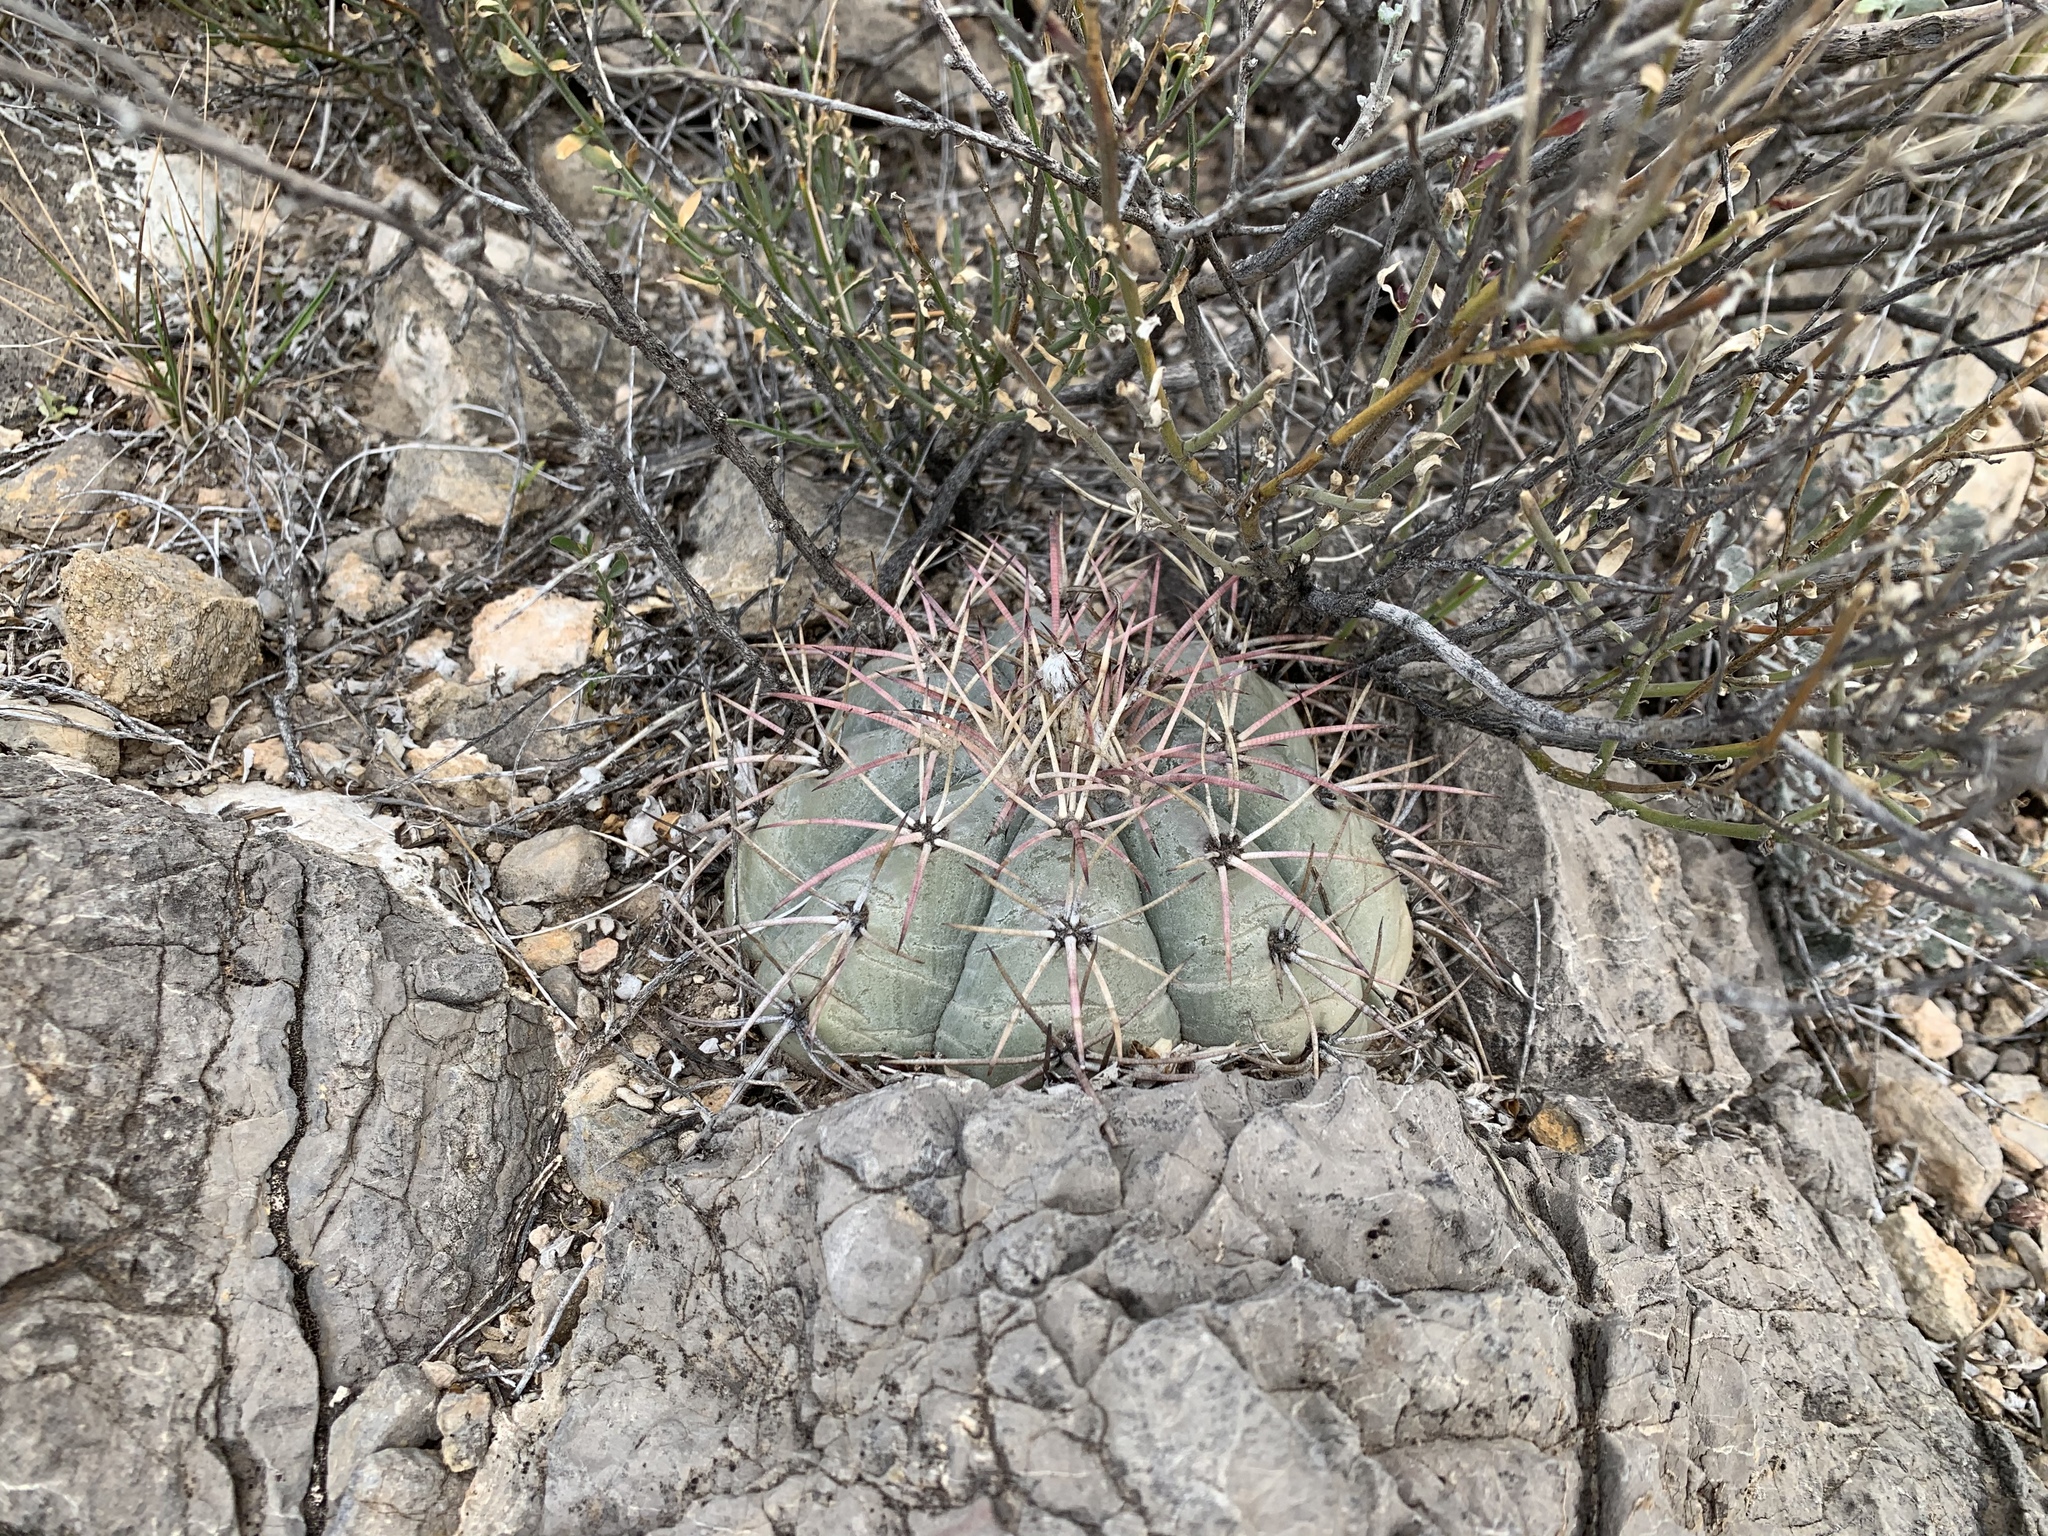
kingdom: Plantae
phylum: Tracheophyta
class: Magnoliopsida
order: Caryophyllales
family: Cactaceae
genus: Echinocactus
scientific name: Echinocactus horizonthalonius
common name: Devilshead
